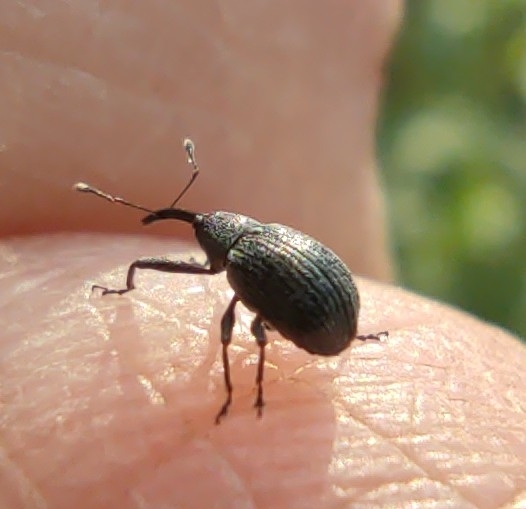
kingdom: Animalia
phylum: Arthropoda
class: Insecta
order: Coleoptera
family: Curculionidae
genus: Anthonomus
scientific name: Anthonomus rubi
